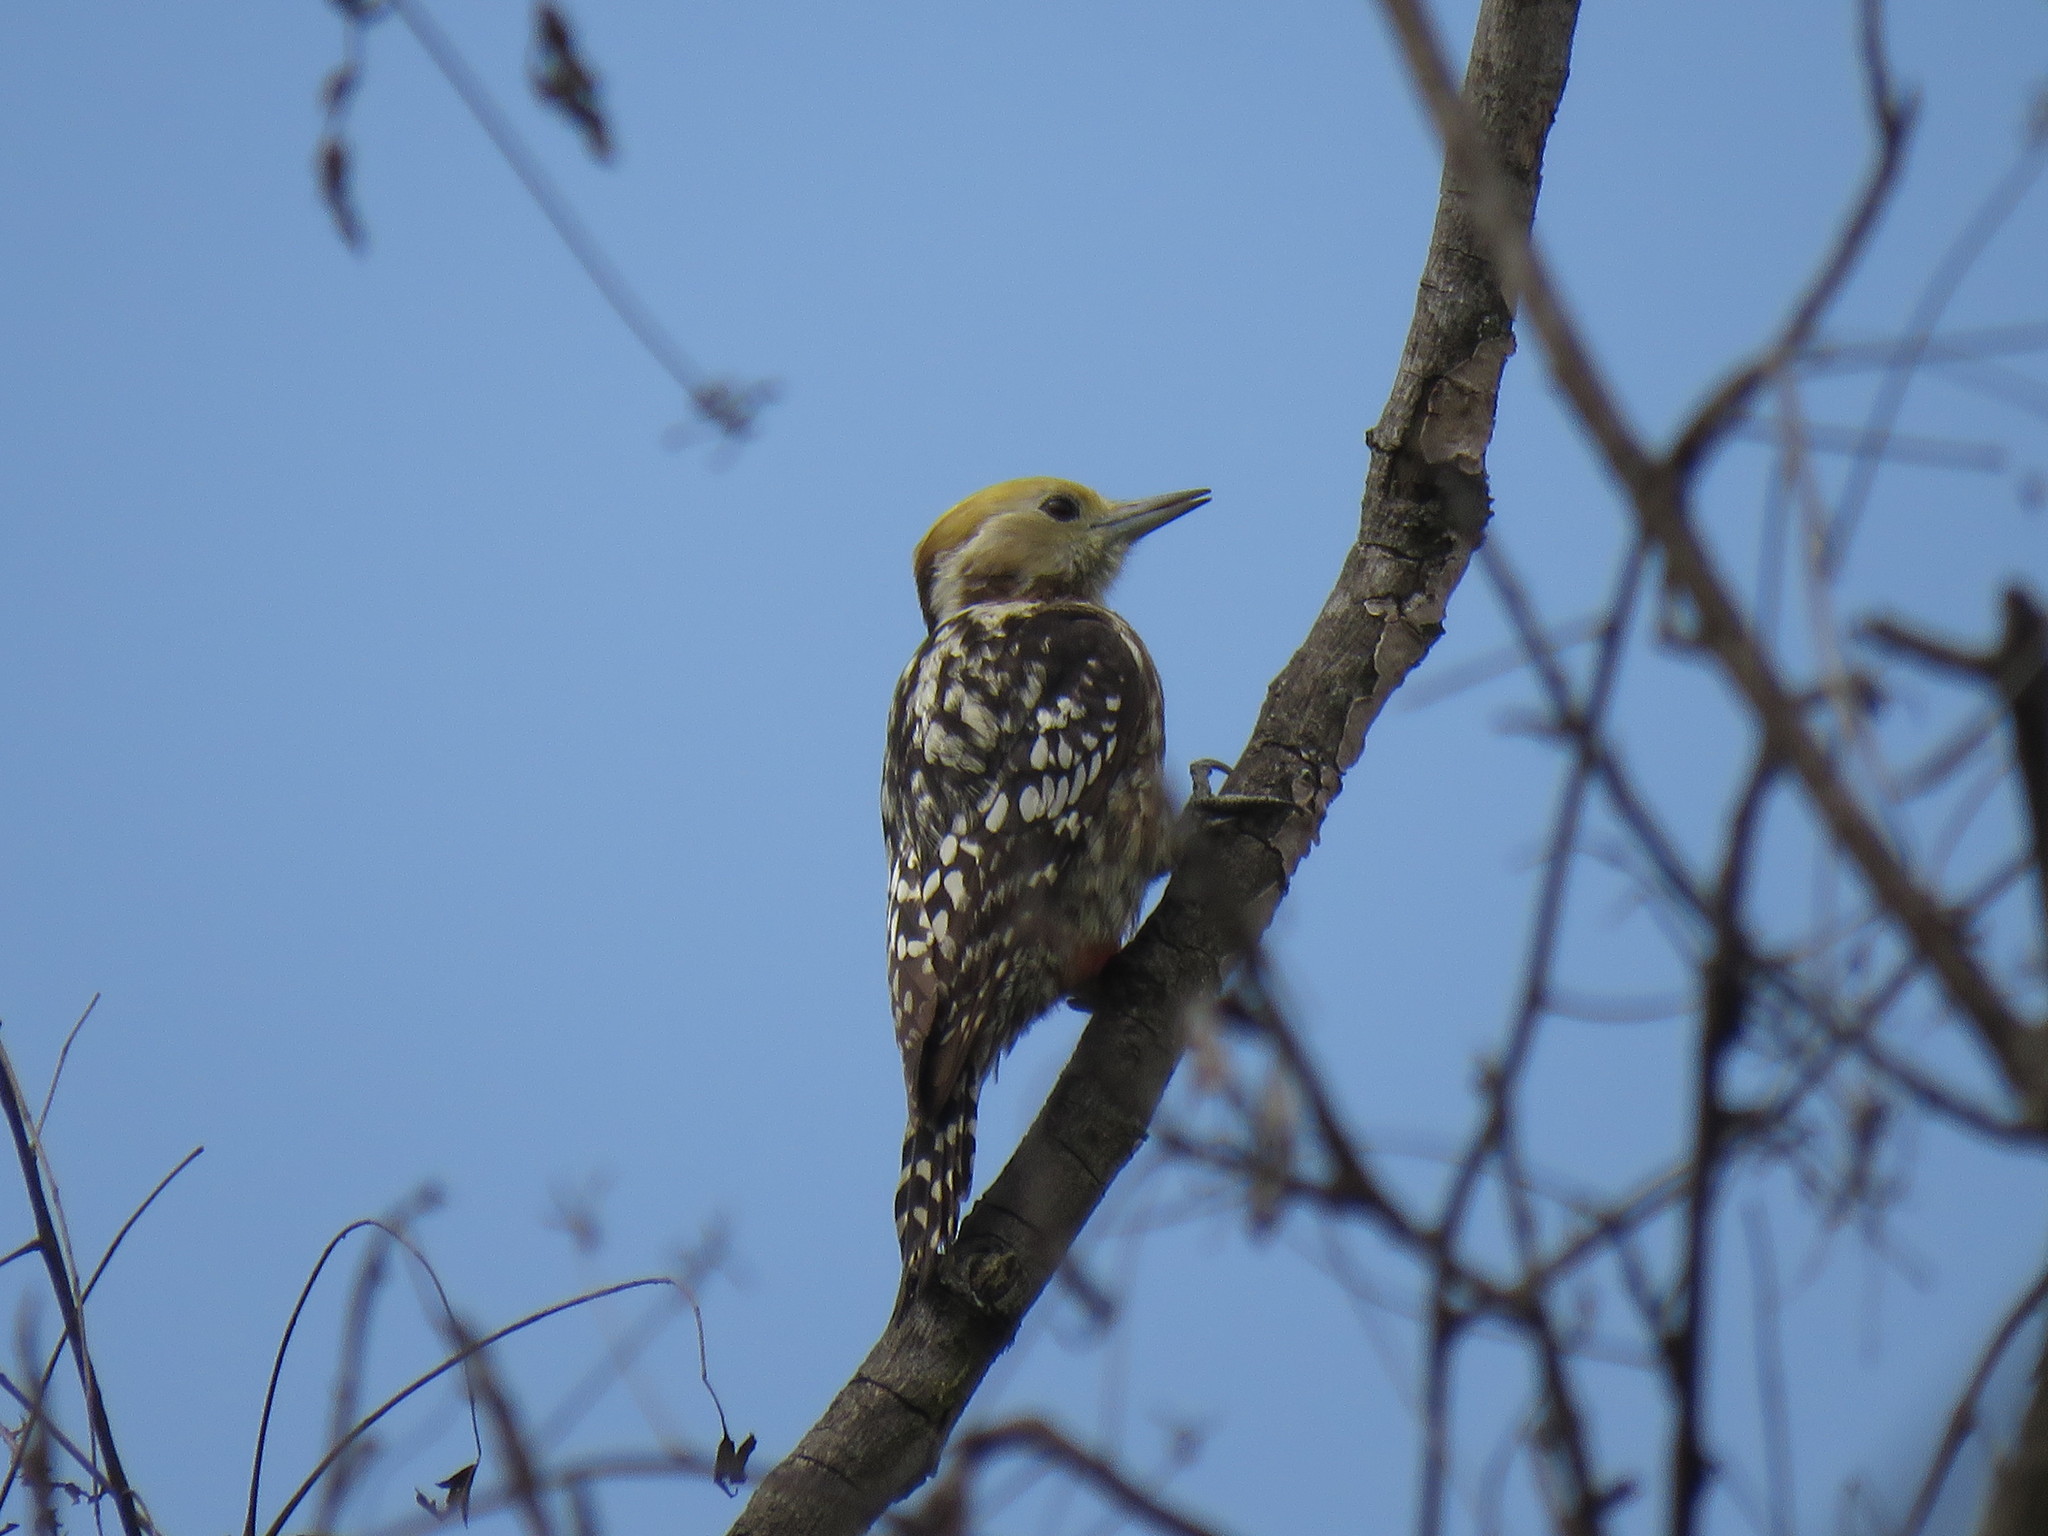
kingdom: Animalia
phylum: Chordata
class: Aves
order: Piciformes
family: Picidae
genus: Leiopicus
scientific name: Leiopicus mahrattensis
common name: Yellow-crowned woodpecker
